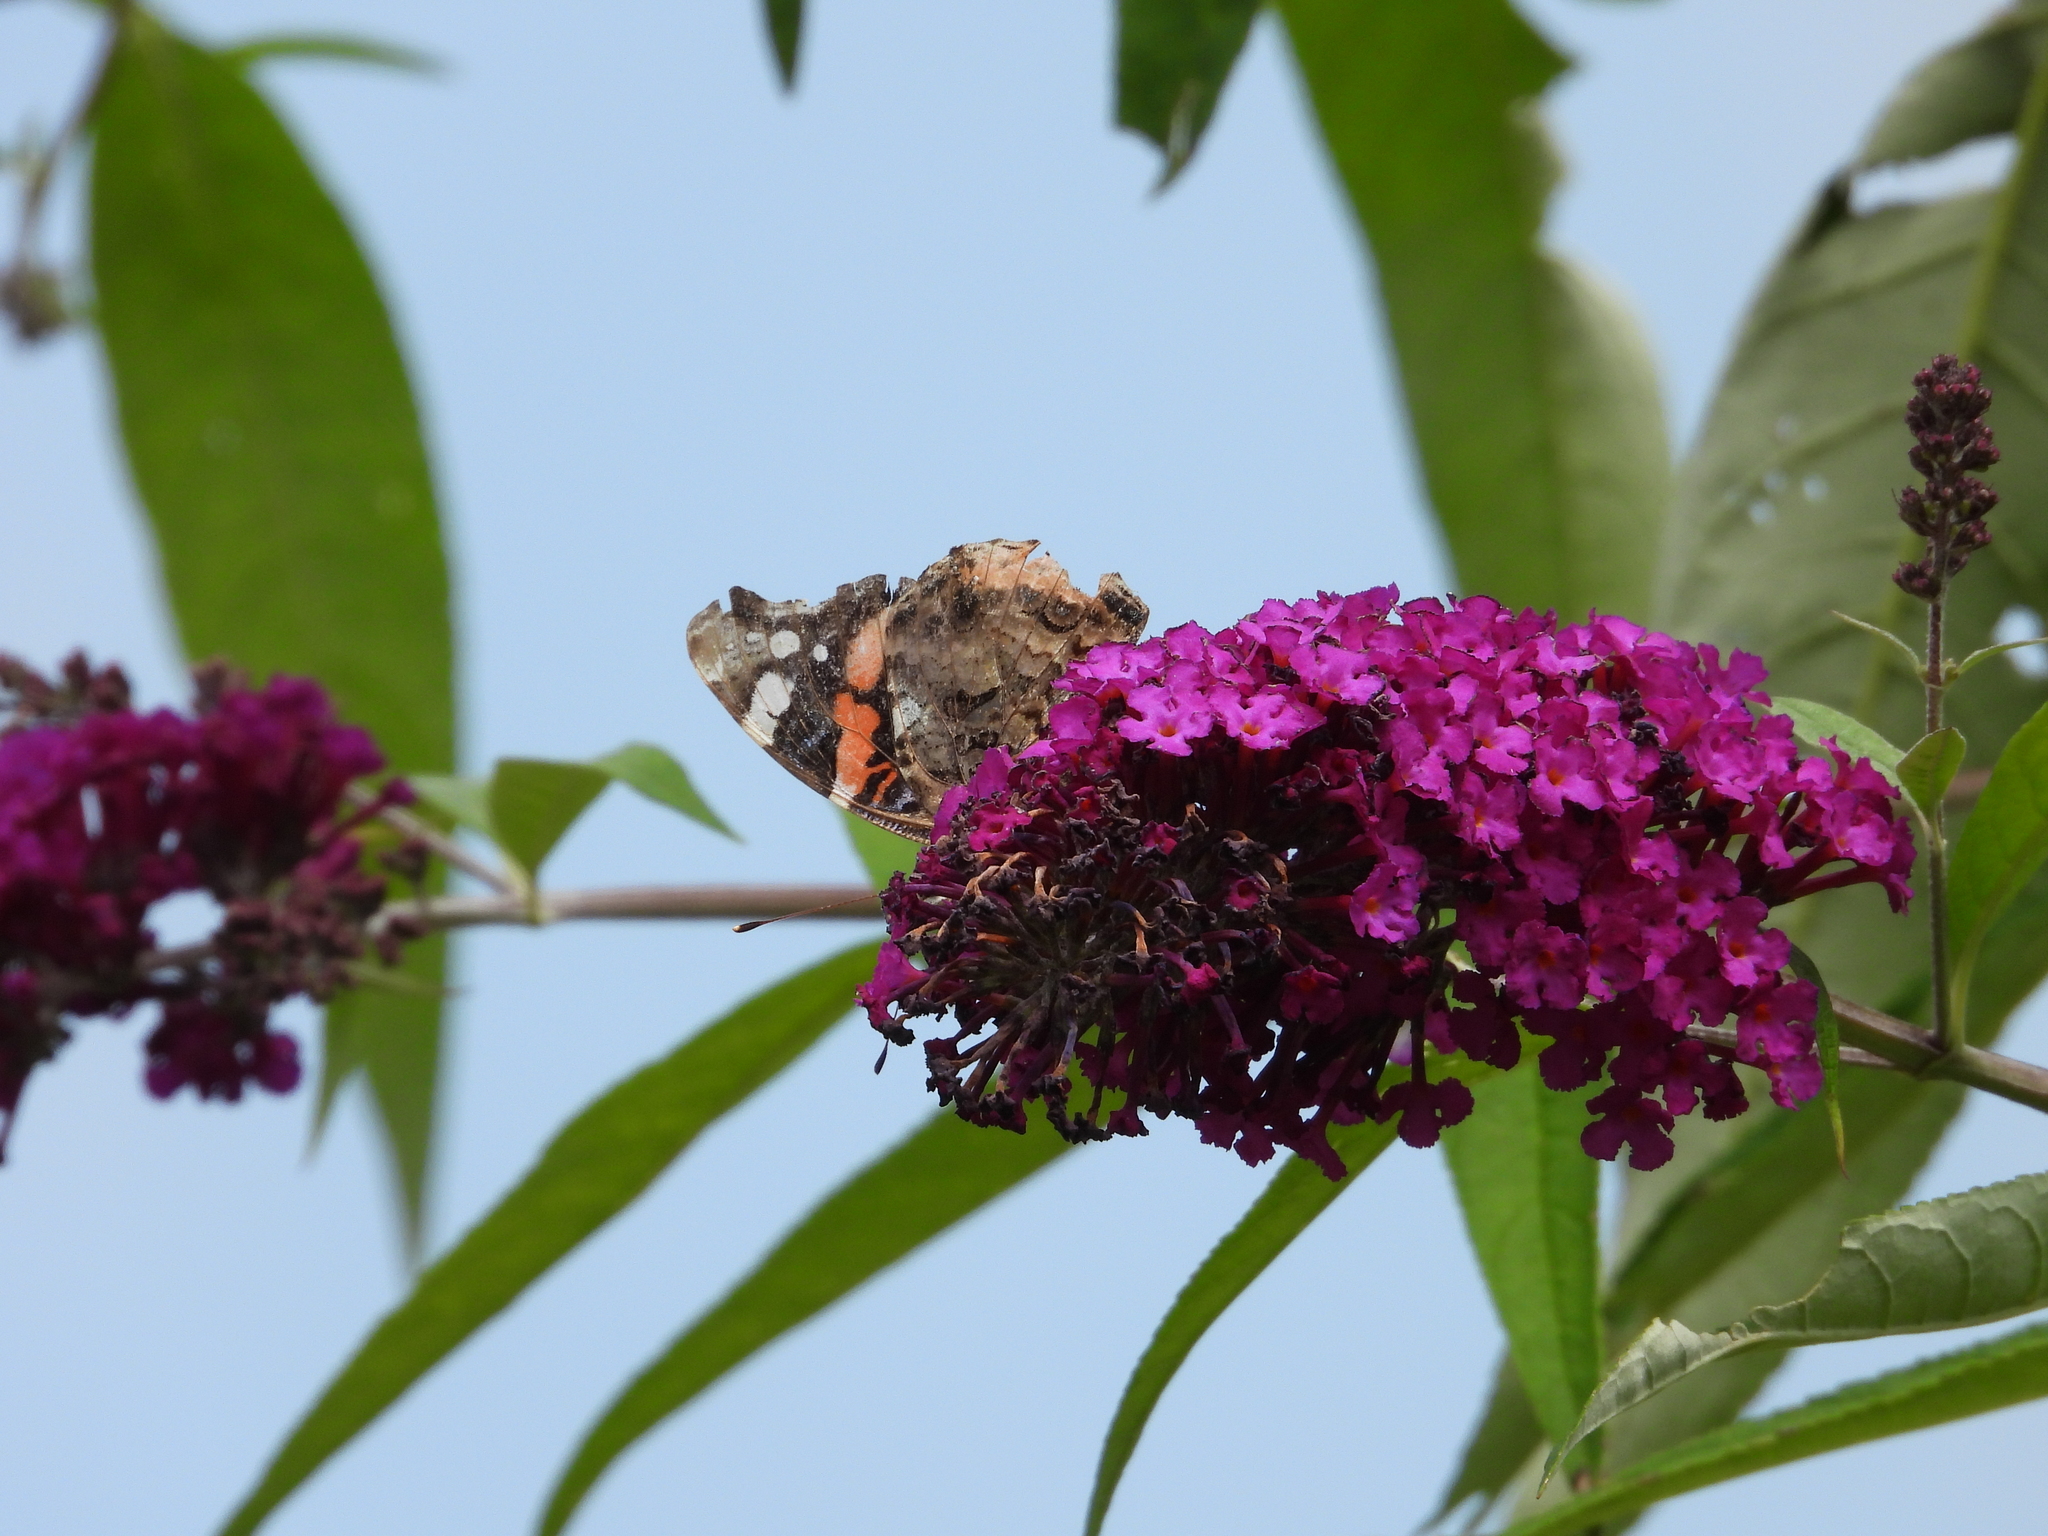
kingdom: Animalia
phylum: Arthropoda
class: Insecta
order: Lepidoptera
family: Nymphalidae
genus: Vanessa
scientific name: Vanessa atalanta
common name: Red admiral
